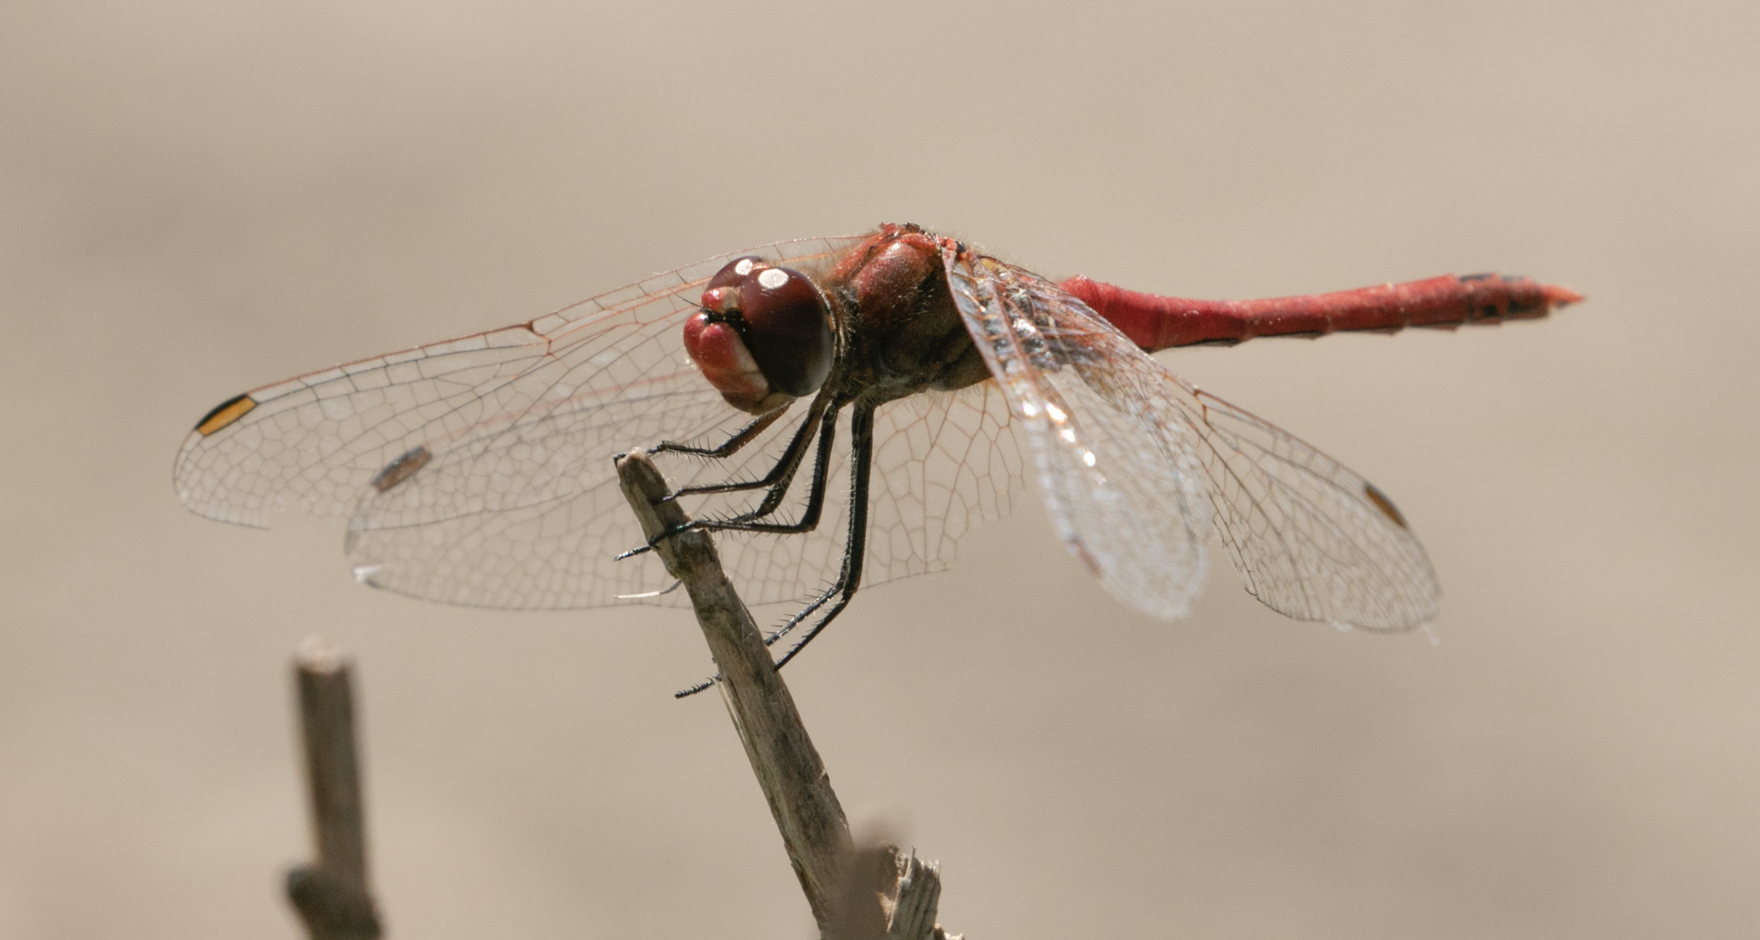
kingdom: Animalia
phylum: Arthropoda
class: Insecta
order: Odonata
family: Libellulidae
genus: Sympetrum
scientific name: Sympetrum fonscolombii
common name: Red-veined darter
